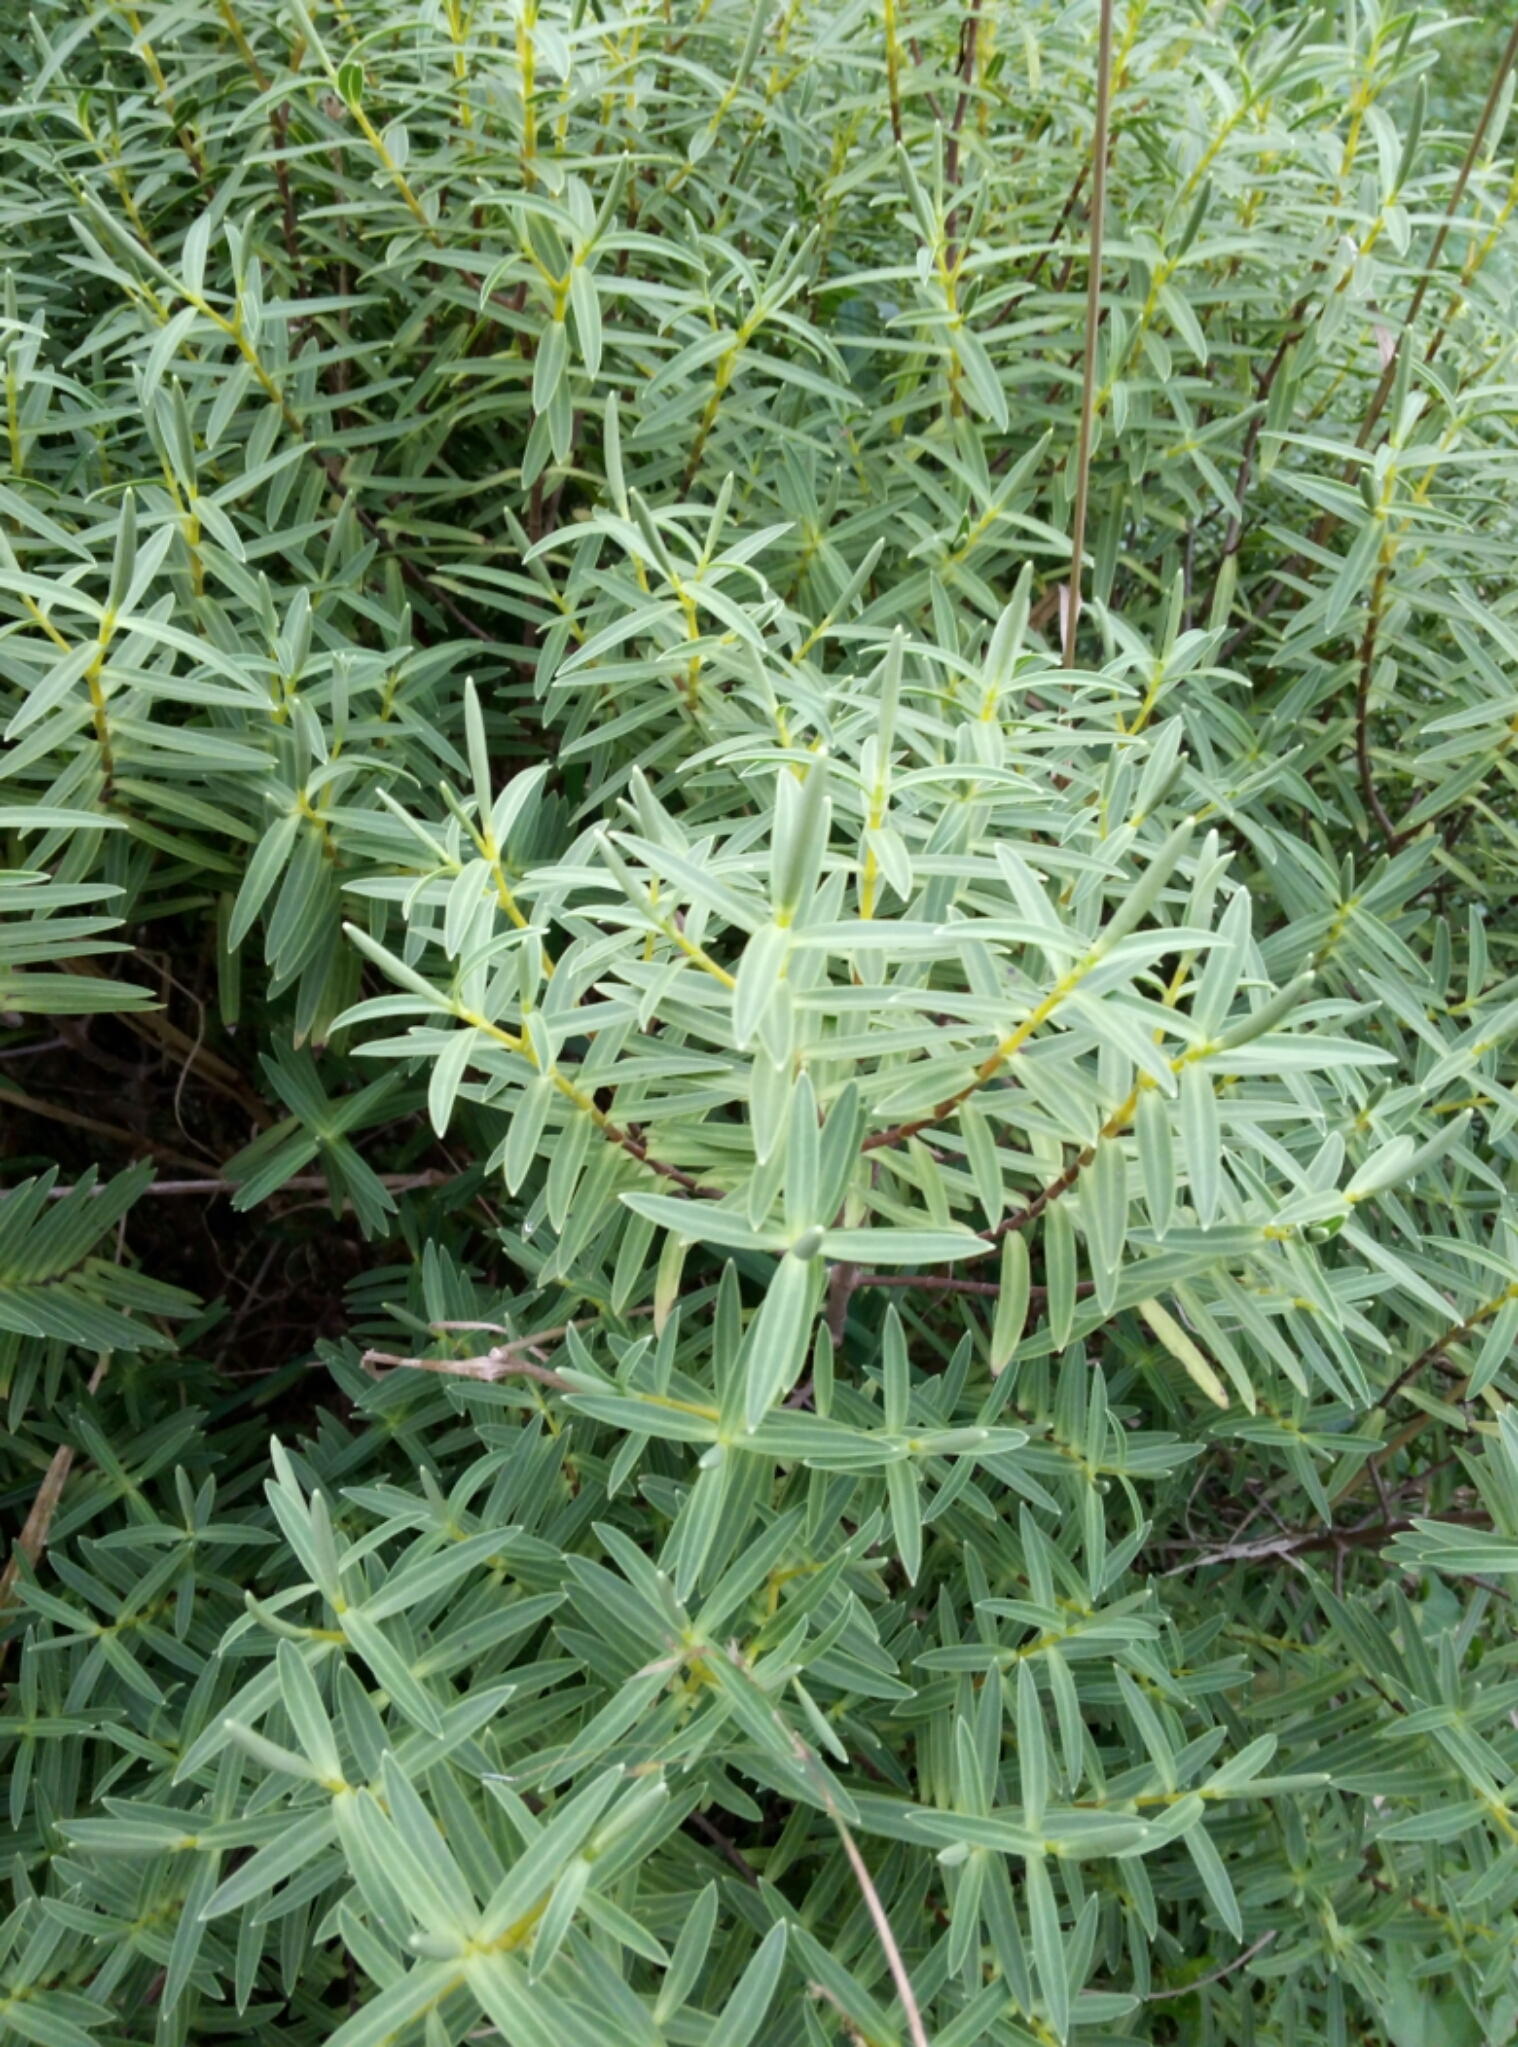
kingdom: Plantae
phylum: Tracheophyta
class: Magnoliopsida
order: Lamiales
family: Plantaginaceae
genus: Veronica
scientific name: Veronica parviflora
